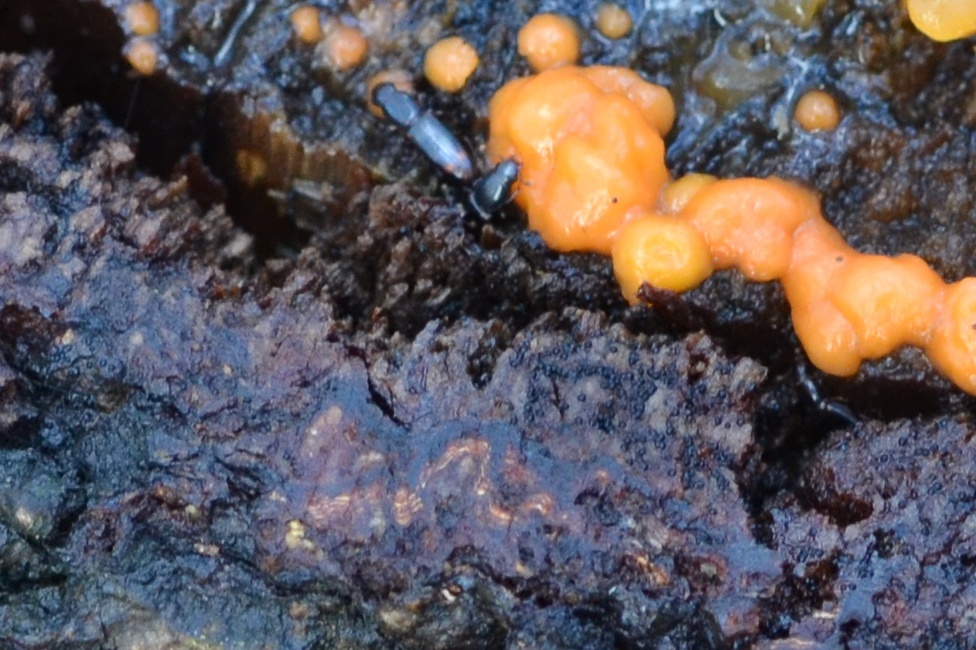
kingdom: Animalia
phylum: Arthropoda
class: Insecta
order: Coleoptera
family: Monotomidae
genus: Rhizophagus
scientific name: Rhizophagus bipustulatus
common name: Root-eating beetle
